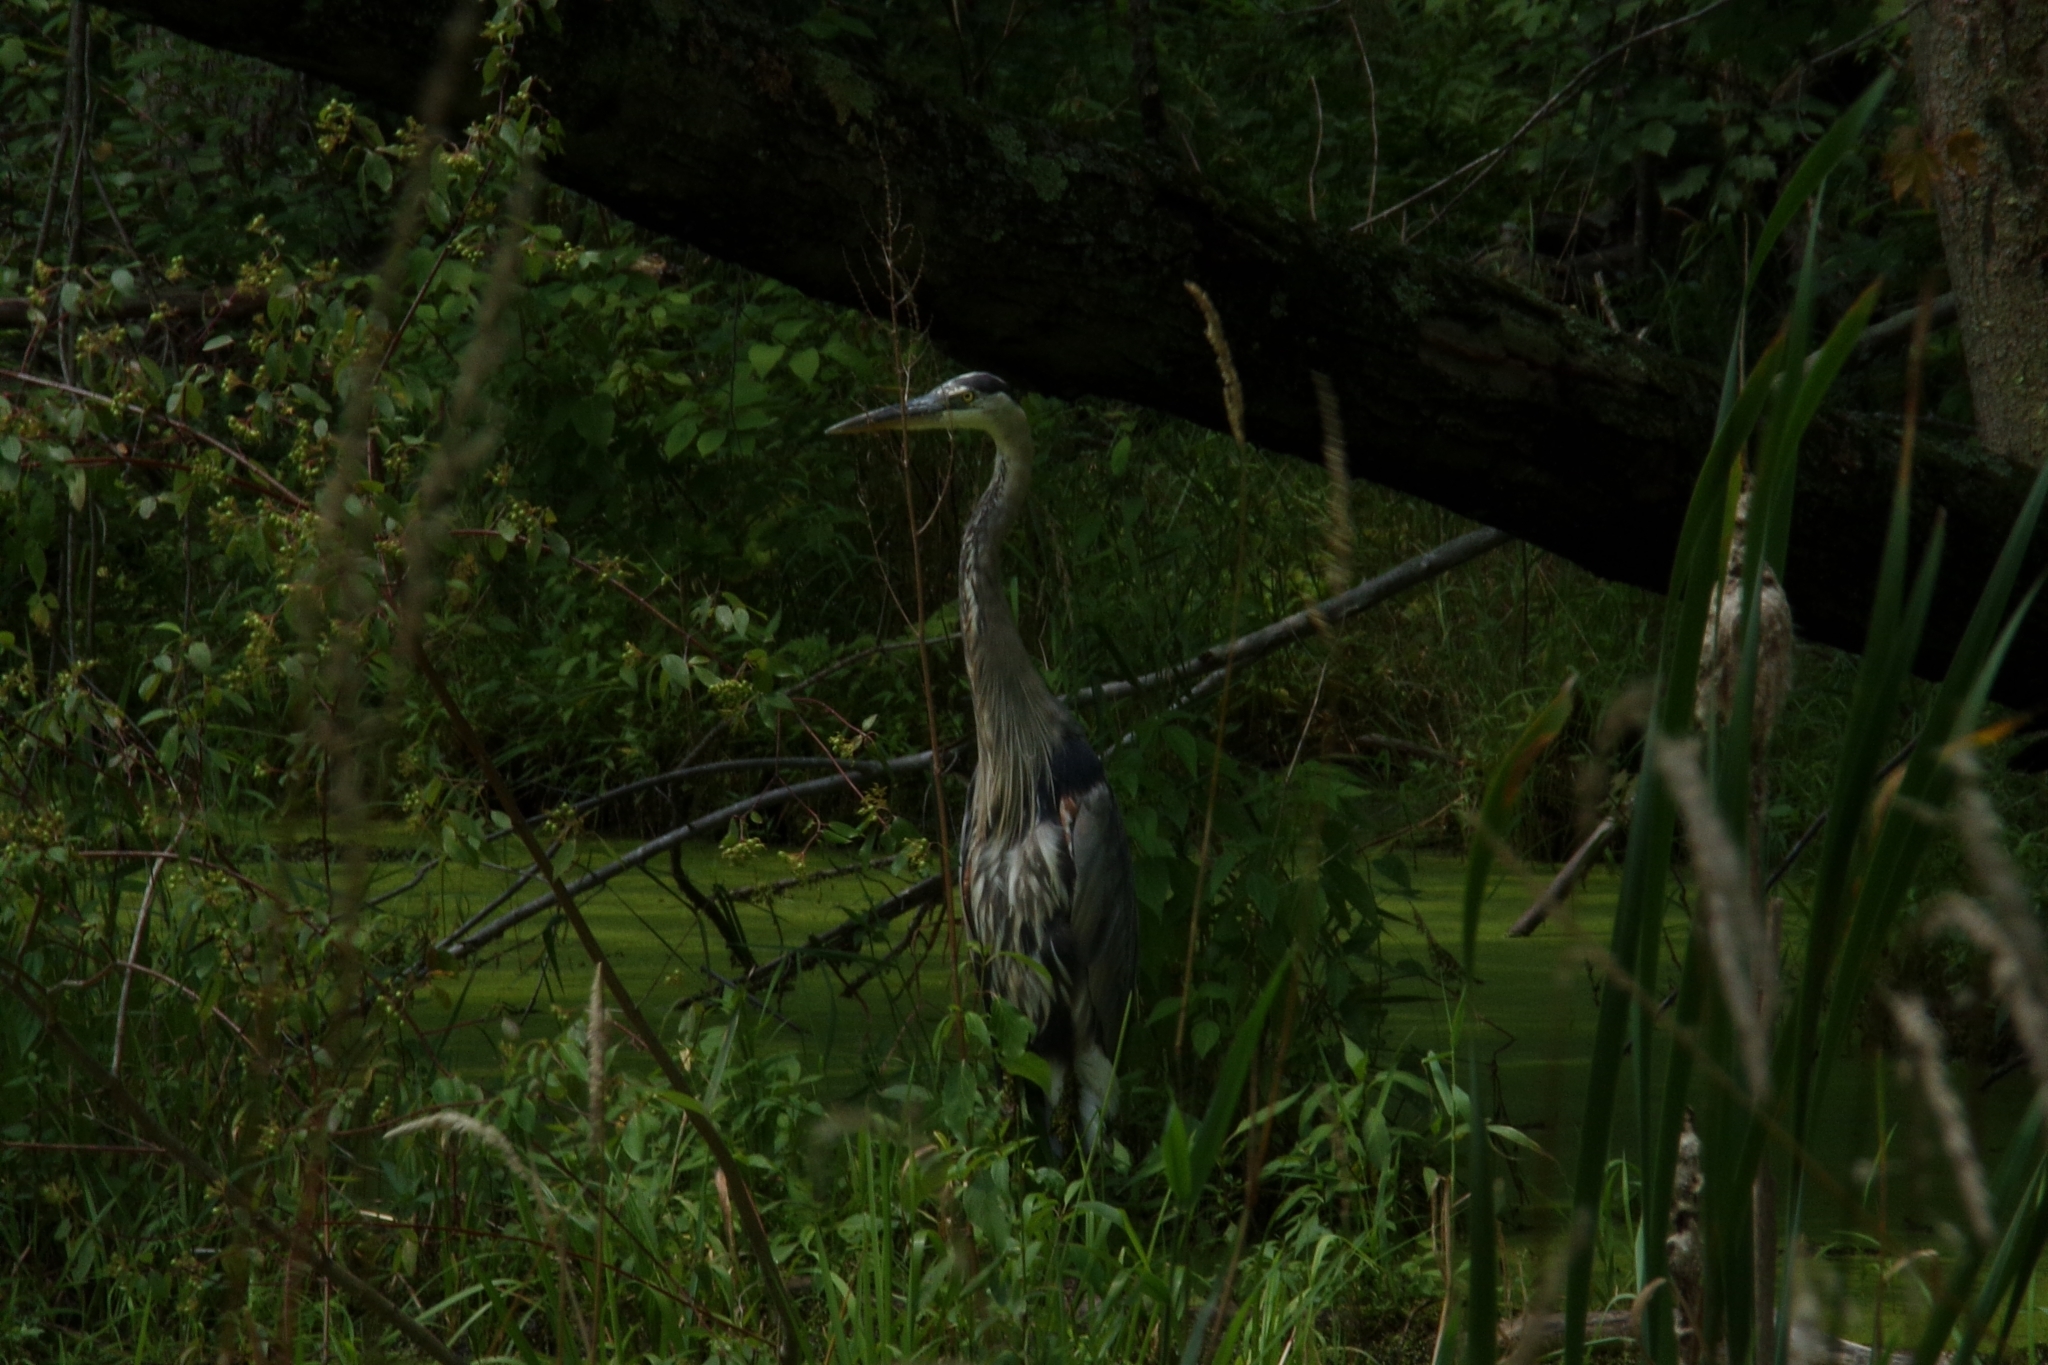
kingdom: Animalia
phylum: Chordata
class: Aves
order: Pelecaniformes
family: Ardeidae
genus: Ardea
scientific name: Ardea herodias
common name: Great blue heron
